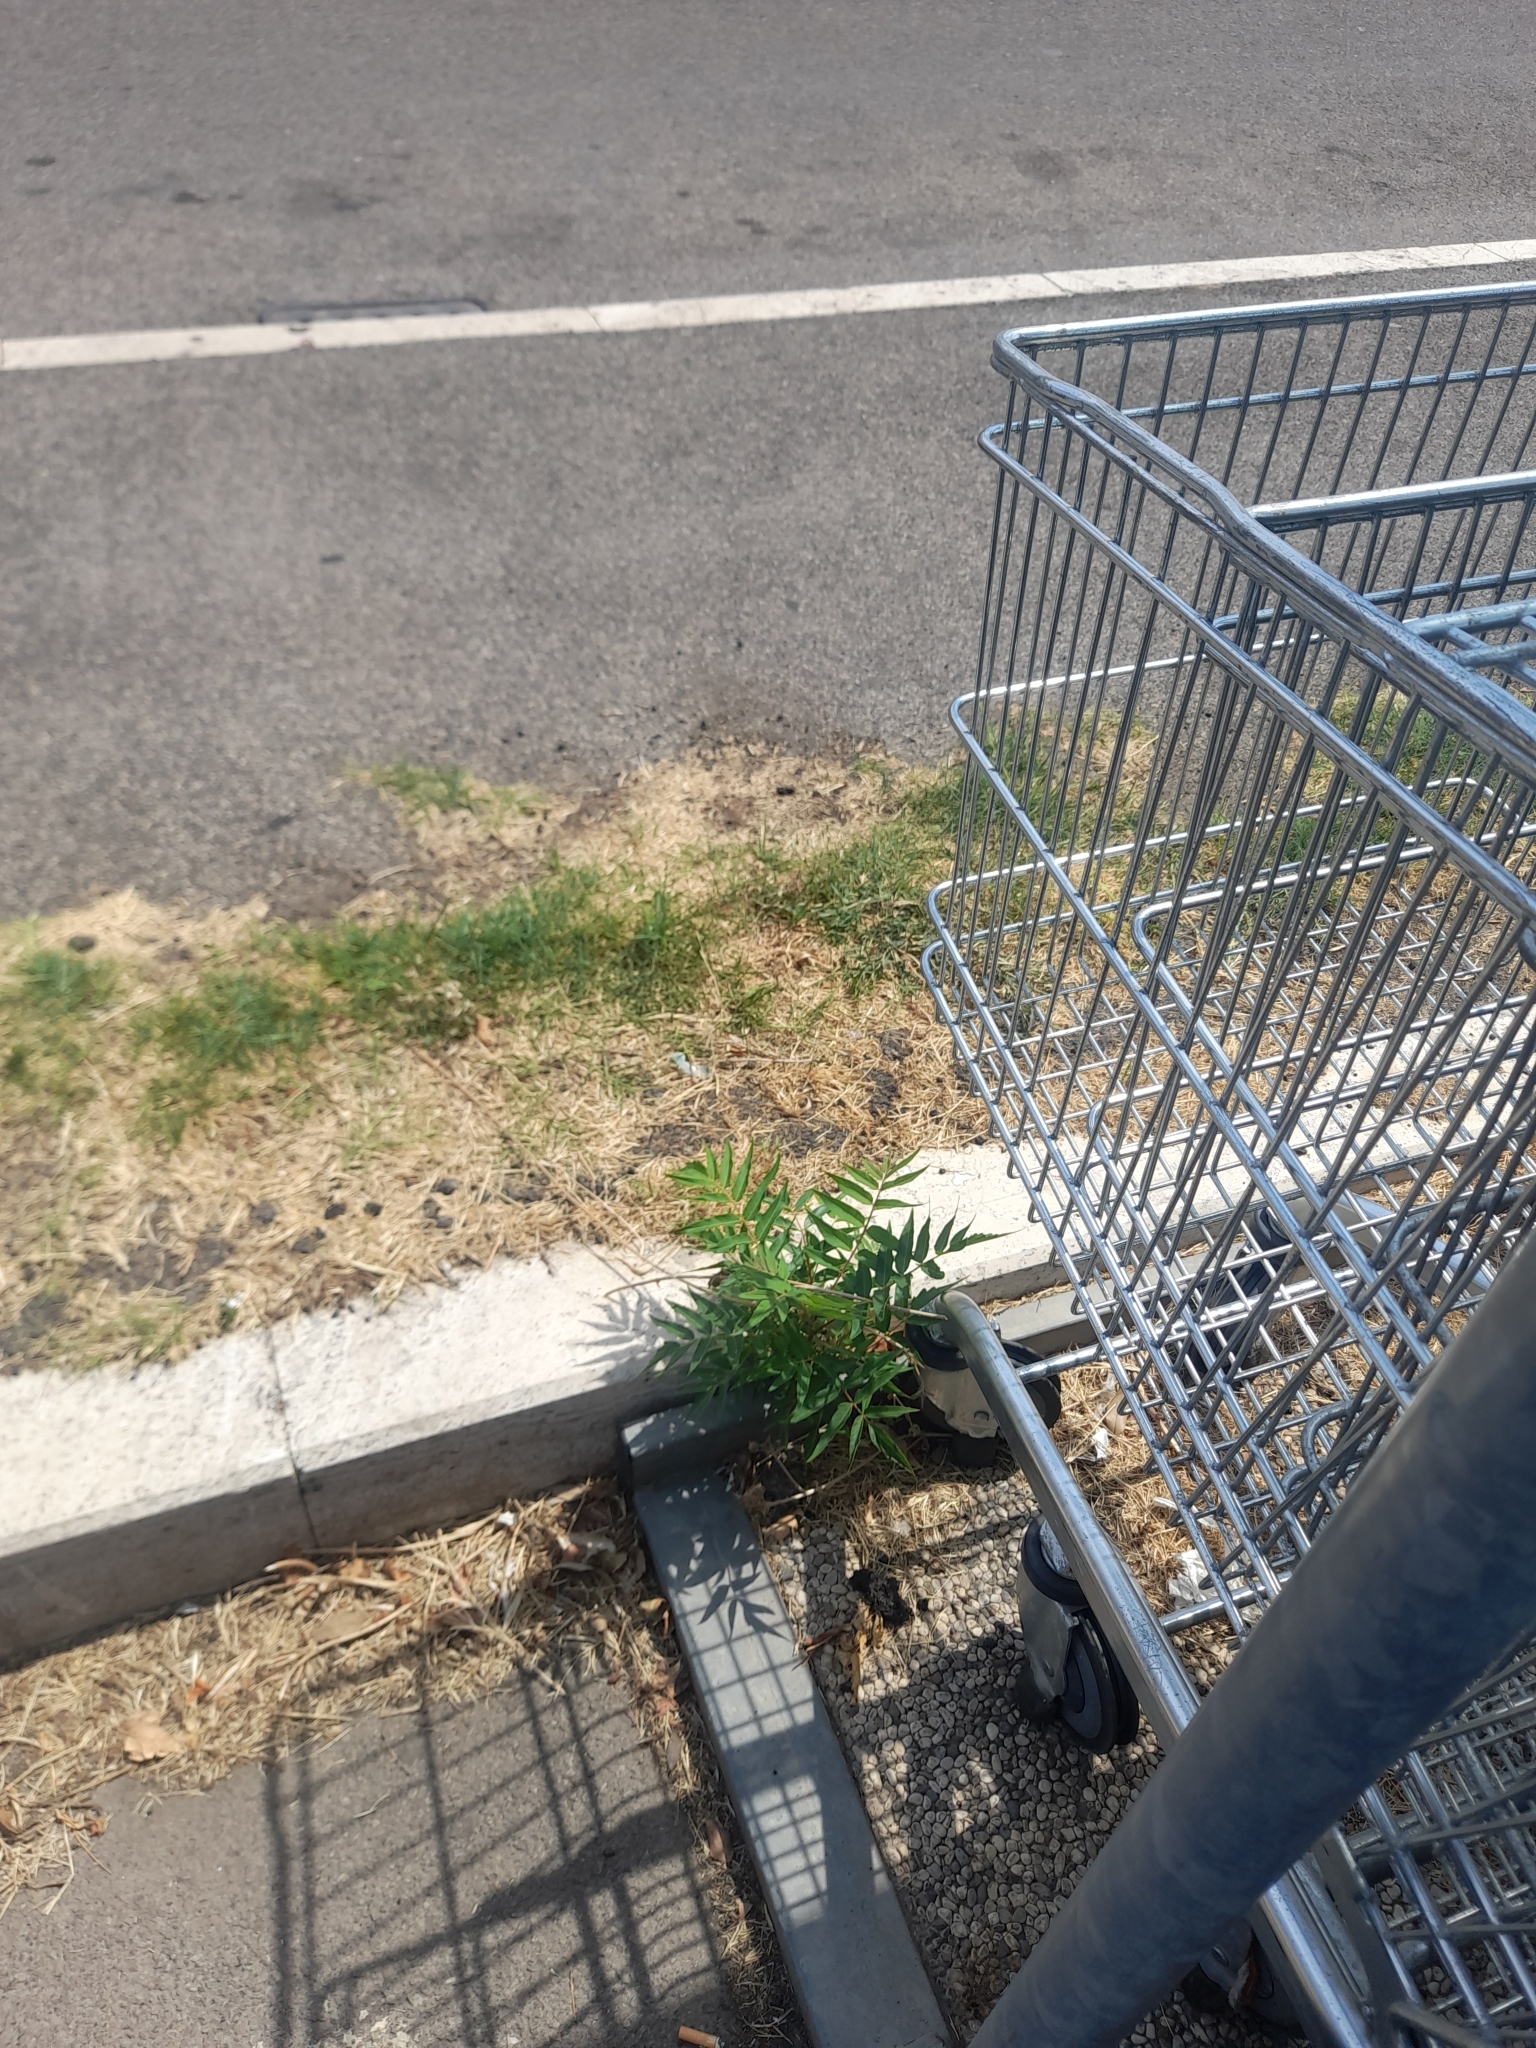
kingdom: Plantae
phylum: Tracheophyta
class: Magnoliopsida
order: Sapindales
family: Simaroubaceae
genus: Ailanthus
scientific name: Ailanthus altissima
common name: Tree-of-heaven
